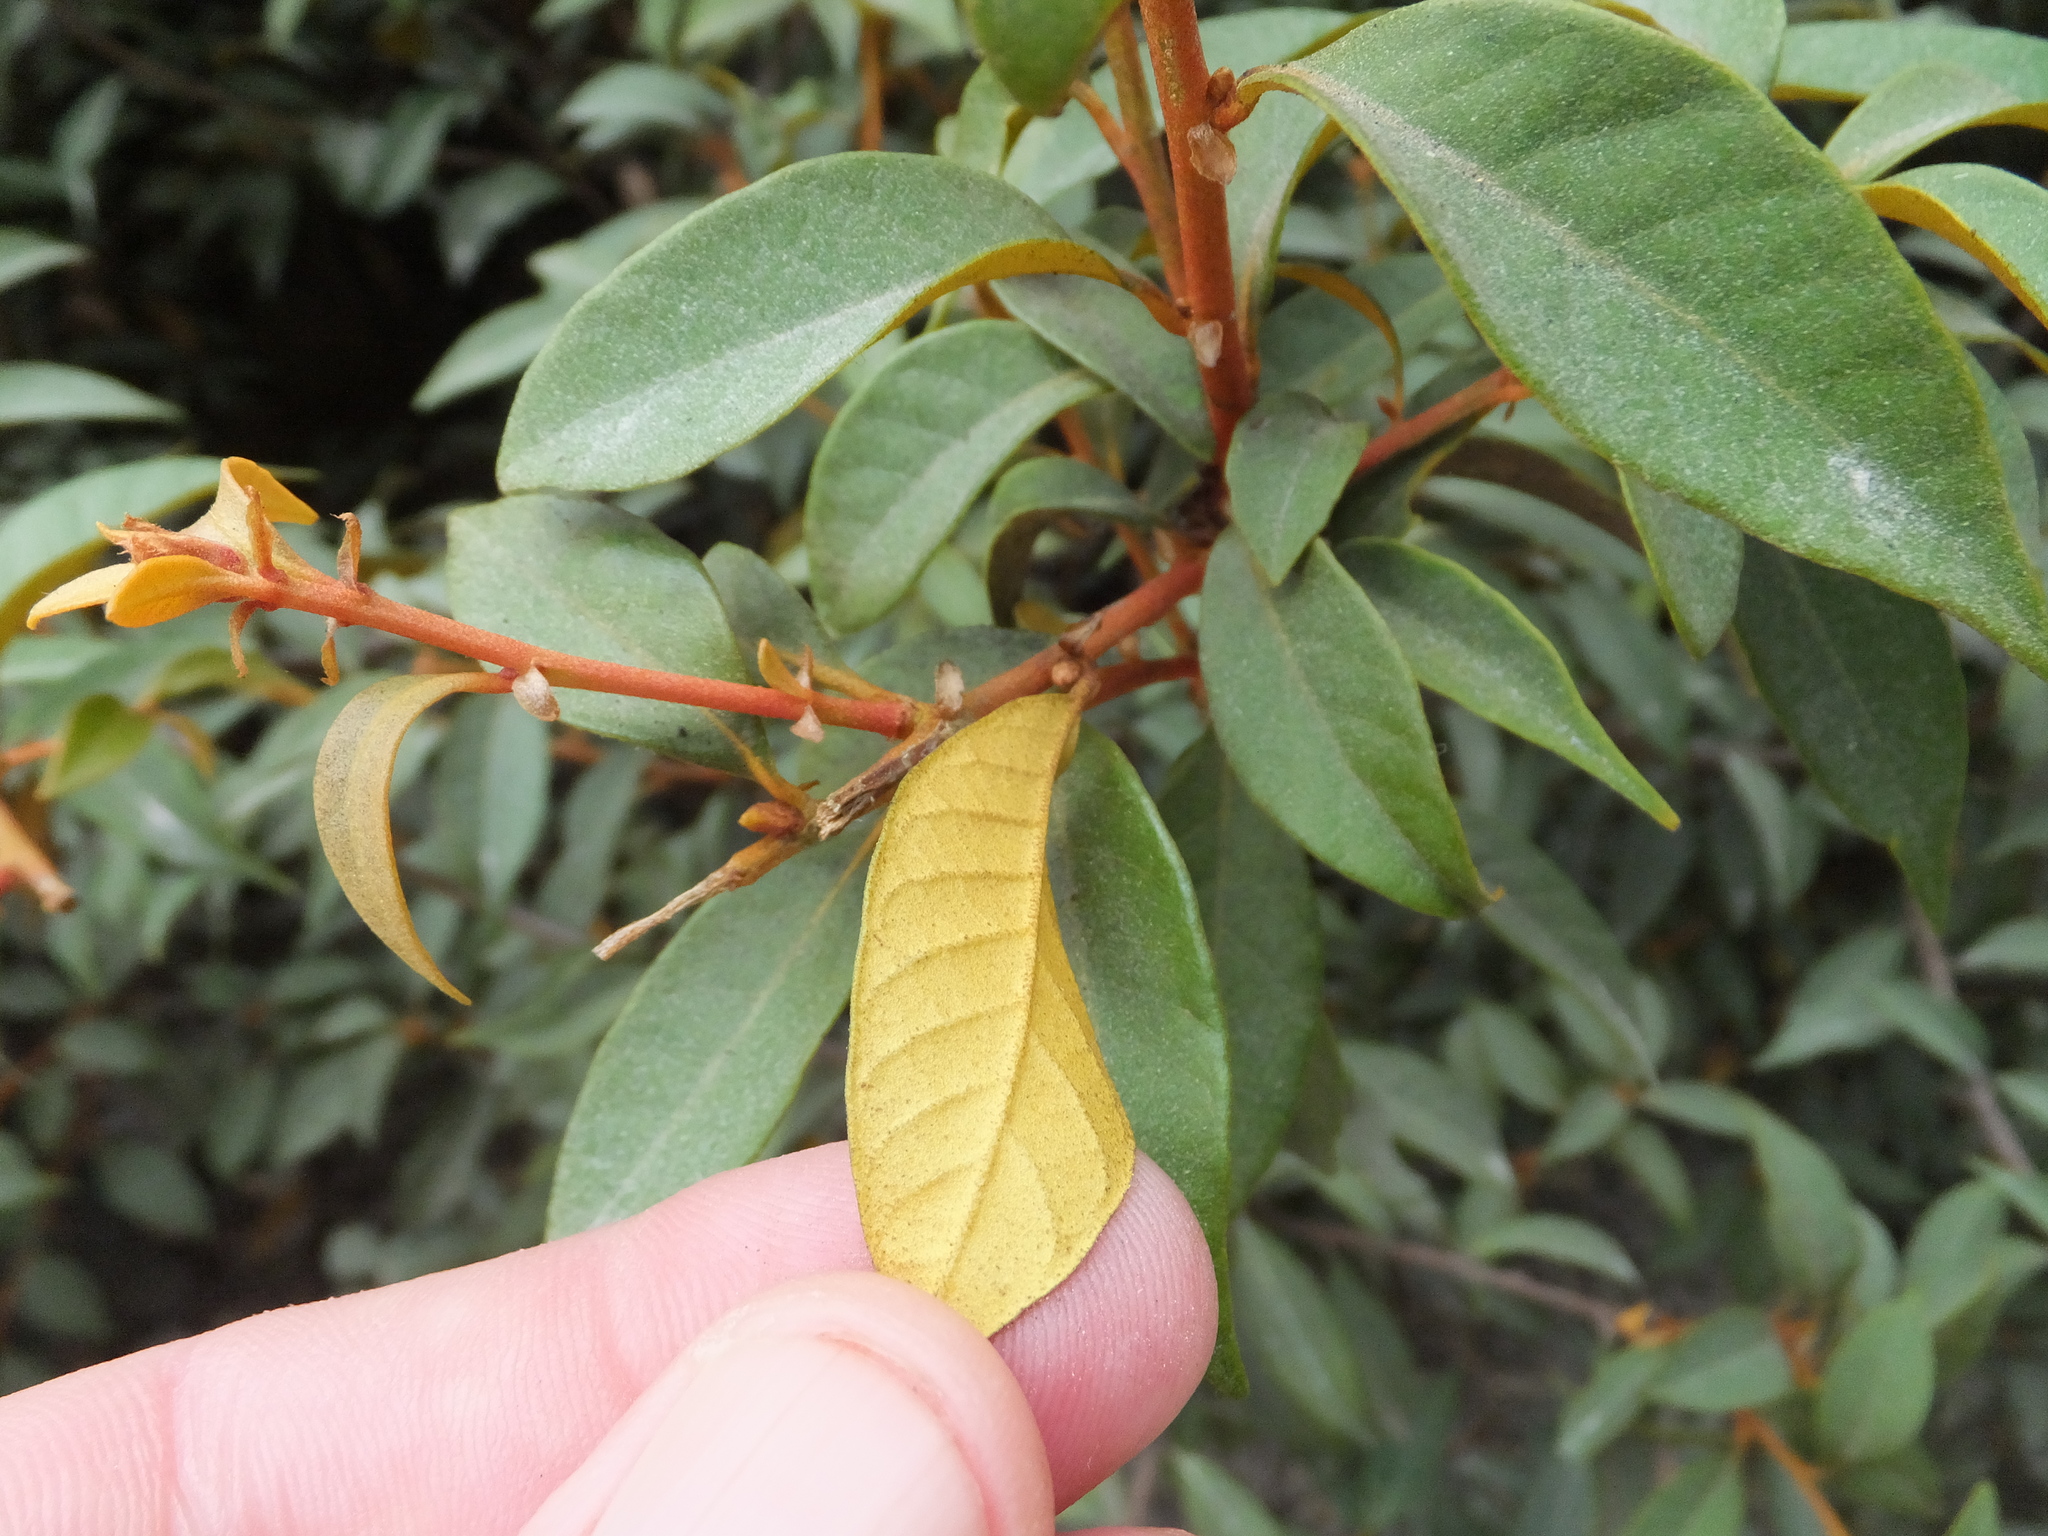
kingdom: Plantae
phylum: Tracheophyta
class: Magnoliopsida
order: Fagales
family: Fagaceae
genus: Chrysolepis
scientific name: Chrysolepis chrysophylla
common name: Giant chinquapin
